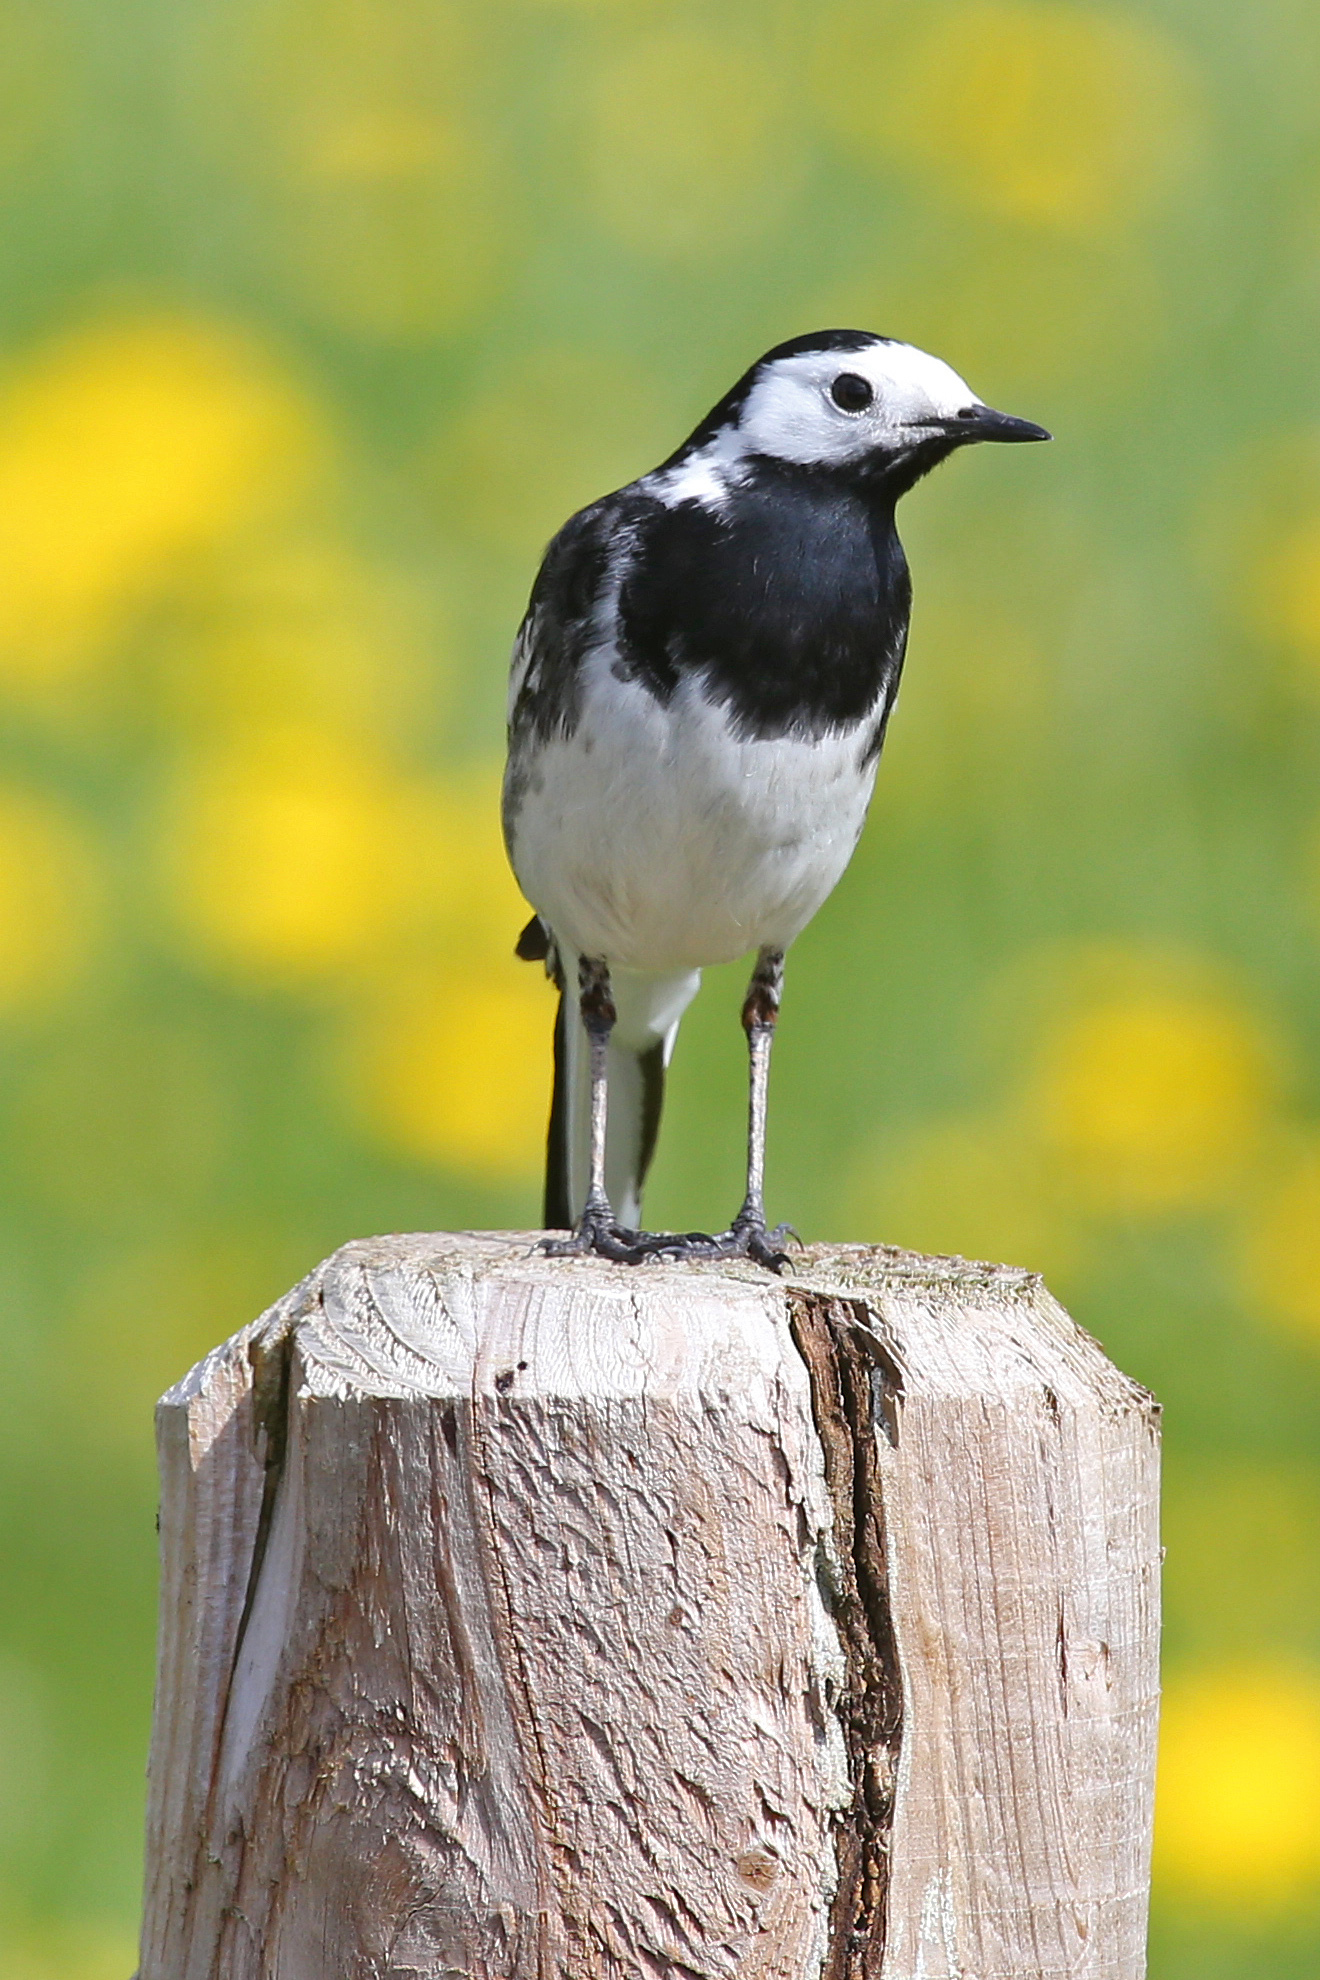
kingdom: Animalia
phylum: Chordata
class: Aves
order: Passeriformes
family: Motacillidae
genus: Motacilla
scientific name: Motacilla alba
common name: White wagtail
